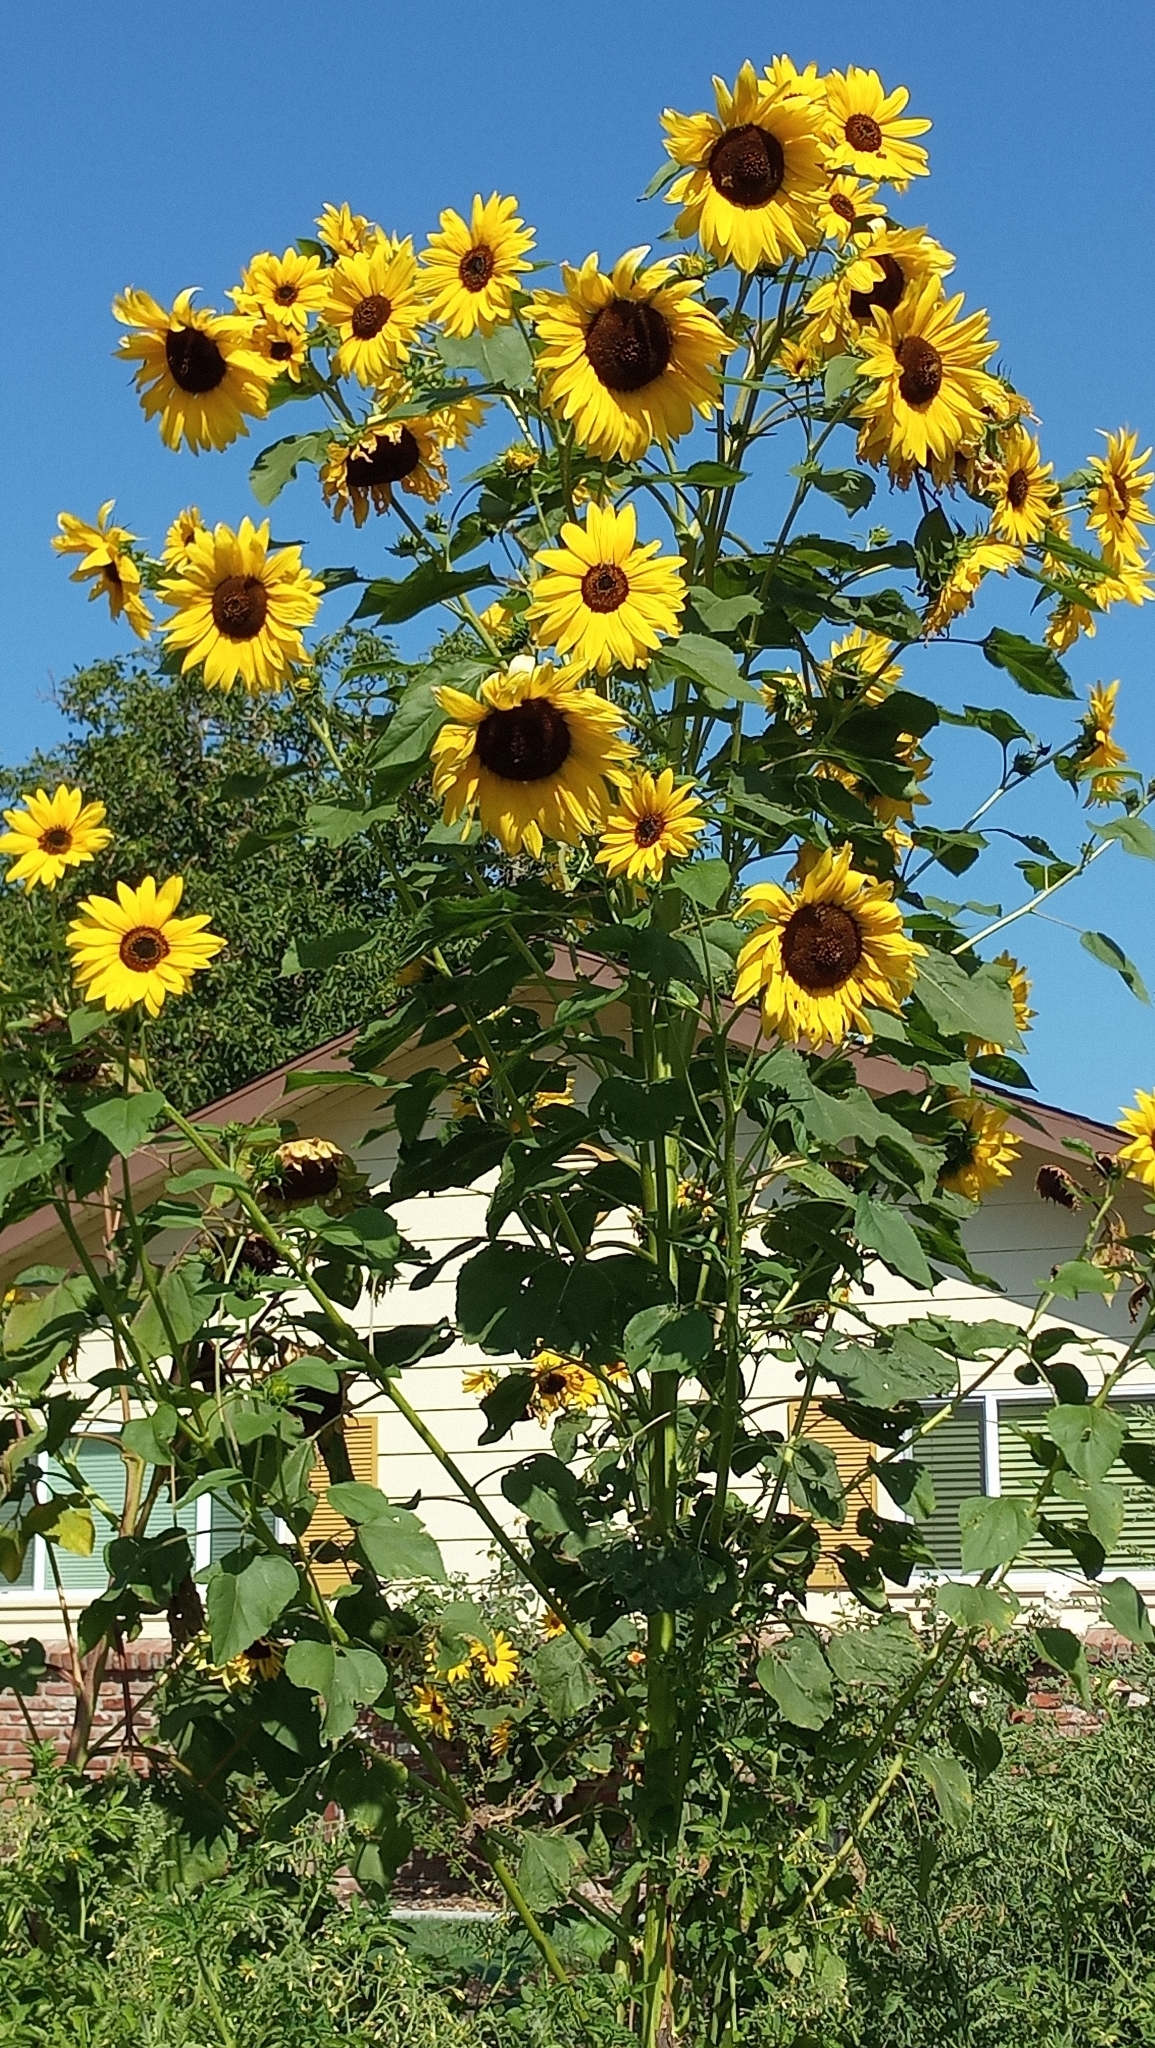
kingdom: Plantae
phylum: Tracheophyta
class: Magnoliopsida
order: Asterales
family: Asteraceae
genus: Helianthus
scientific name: Helianthus annuus
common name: Sunflower
